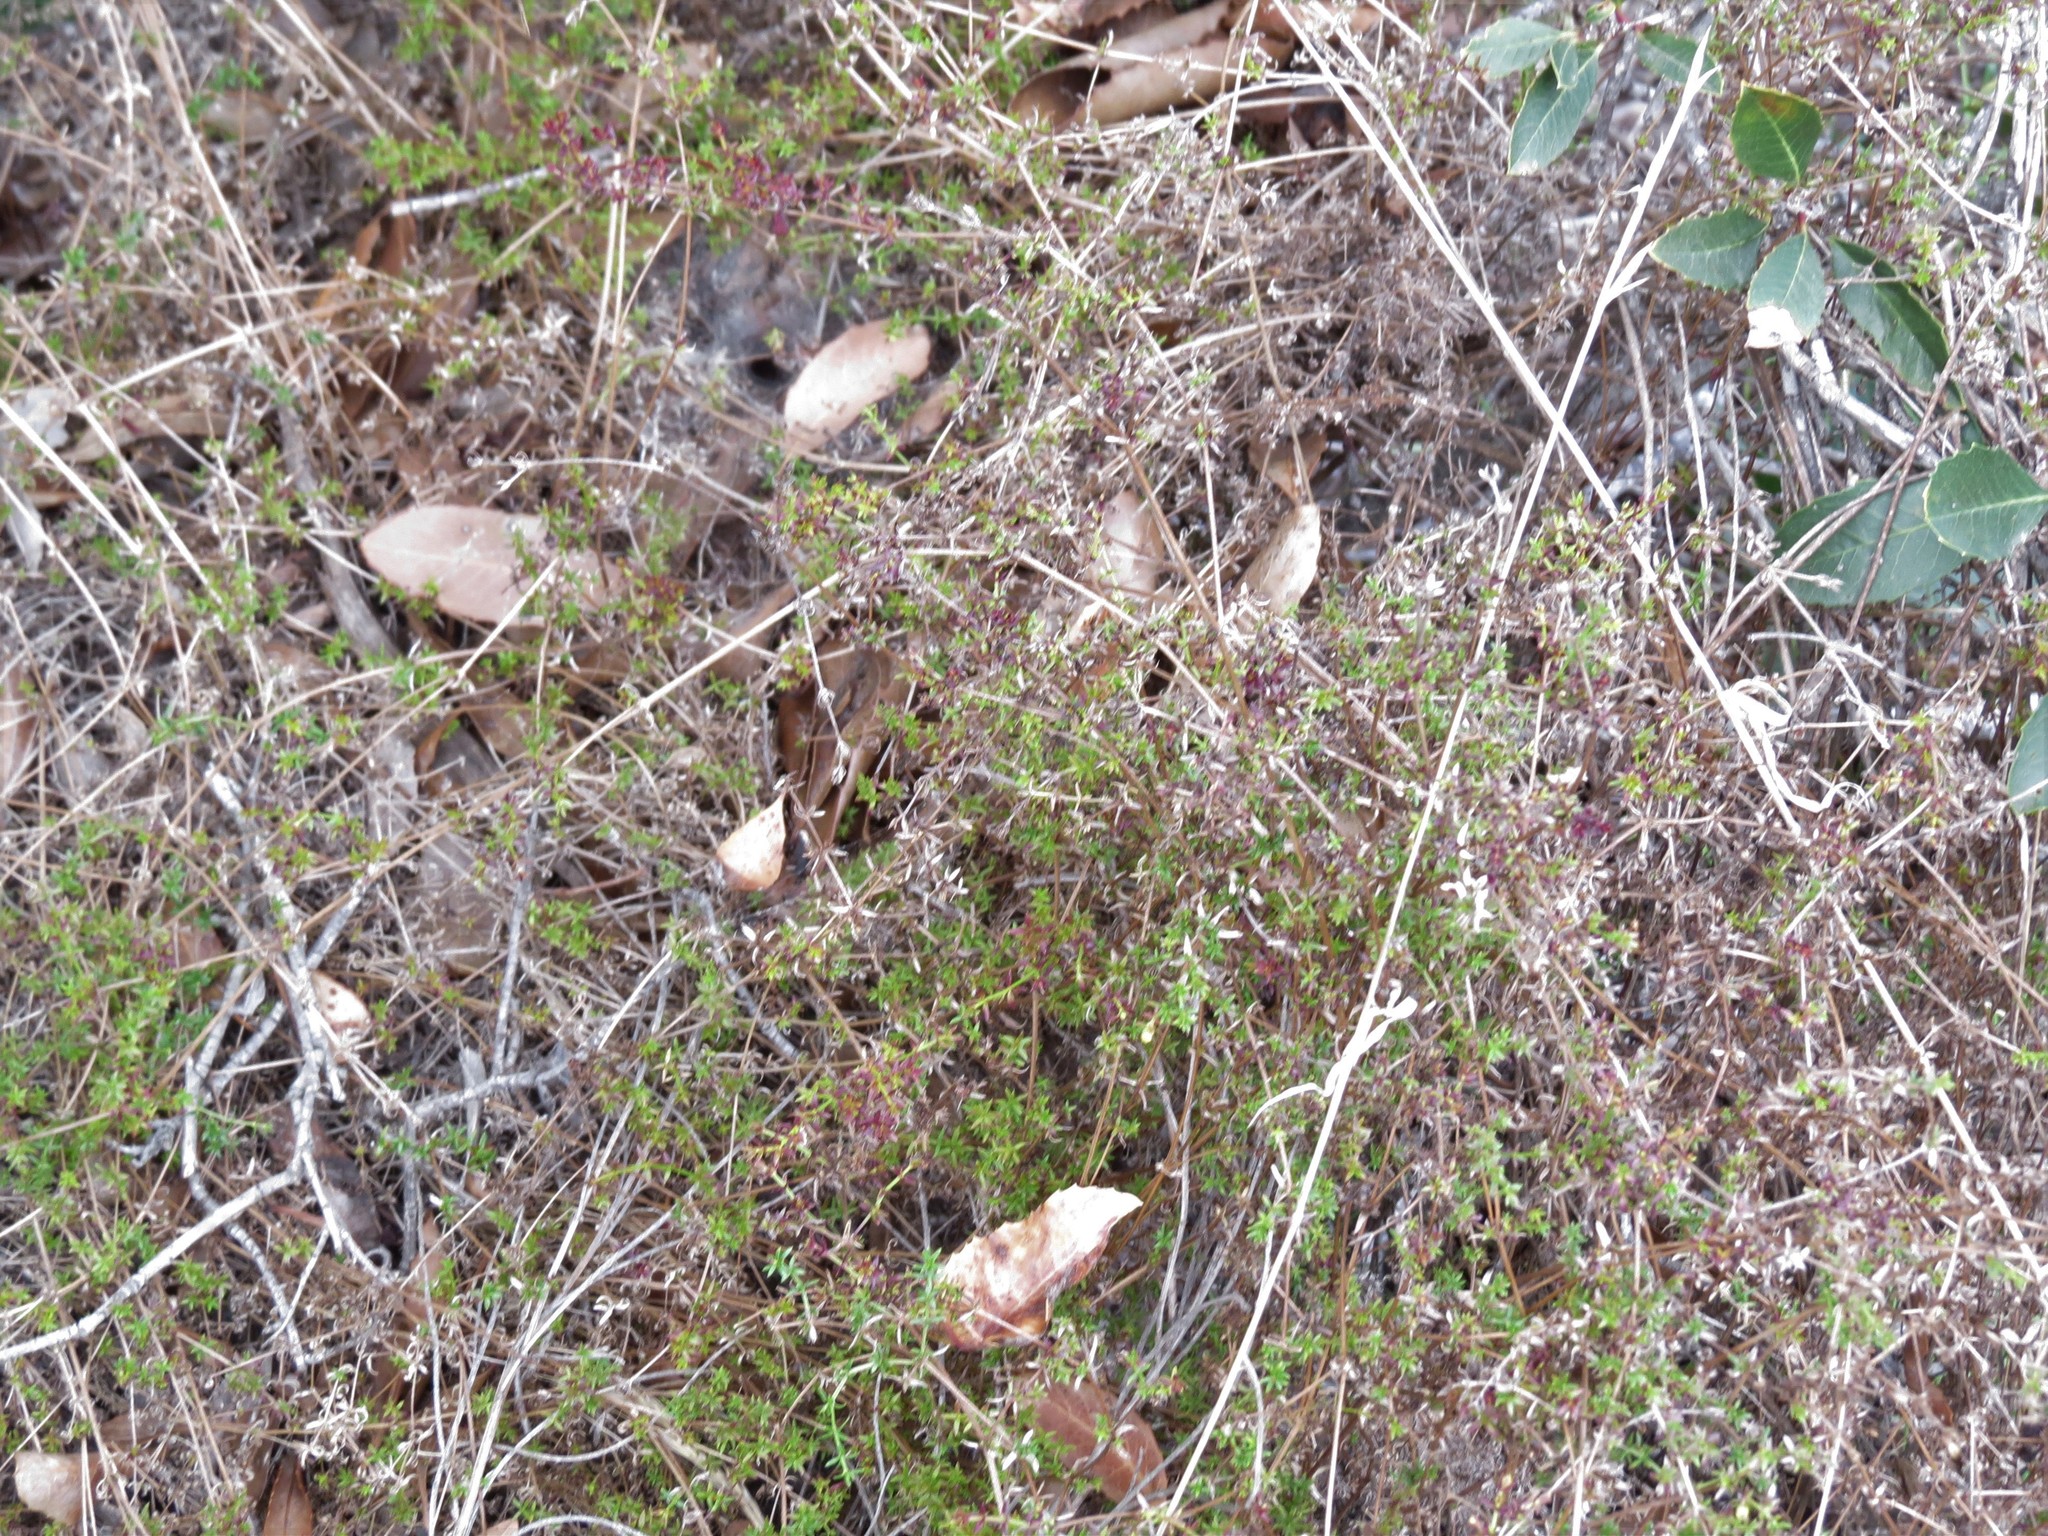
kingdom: Plantae
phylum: Tracheophyta
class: Magnoliopsida
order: Gentianales
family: Rubiaceae
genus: Galium
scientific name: Galium nuttallii
